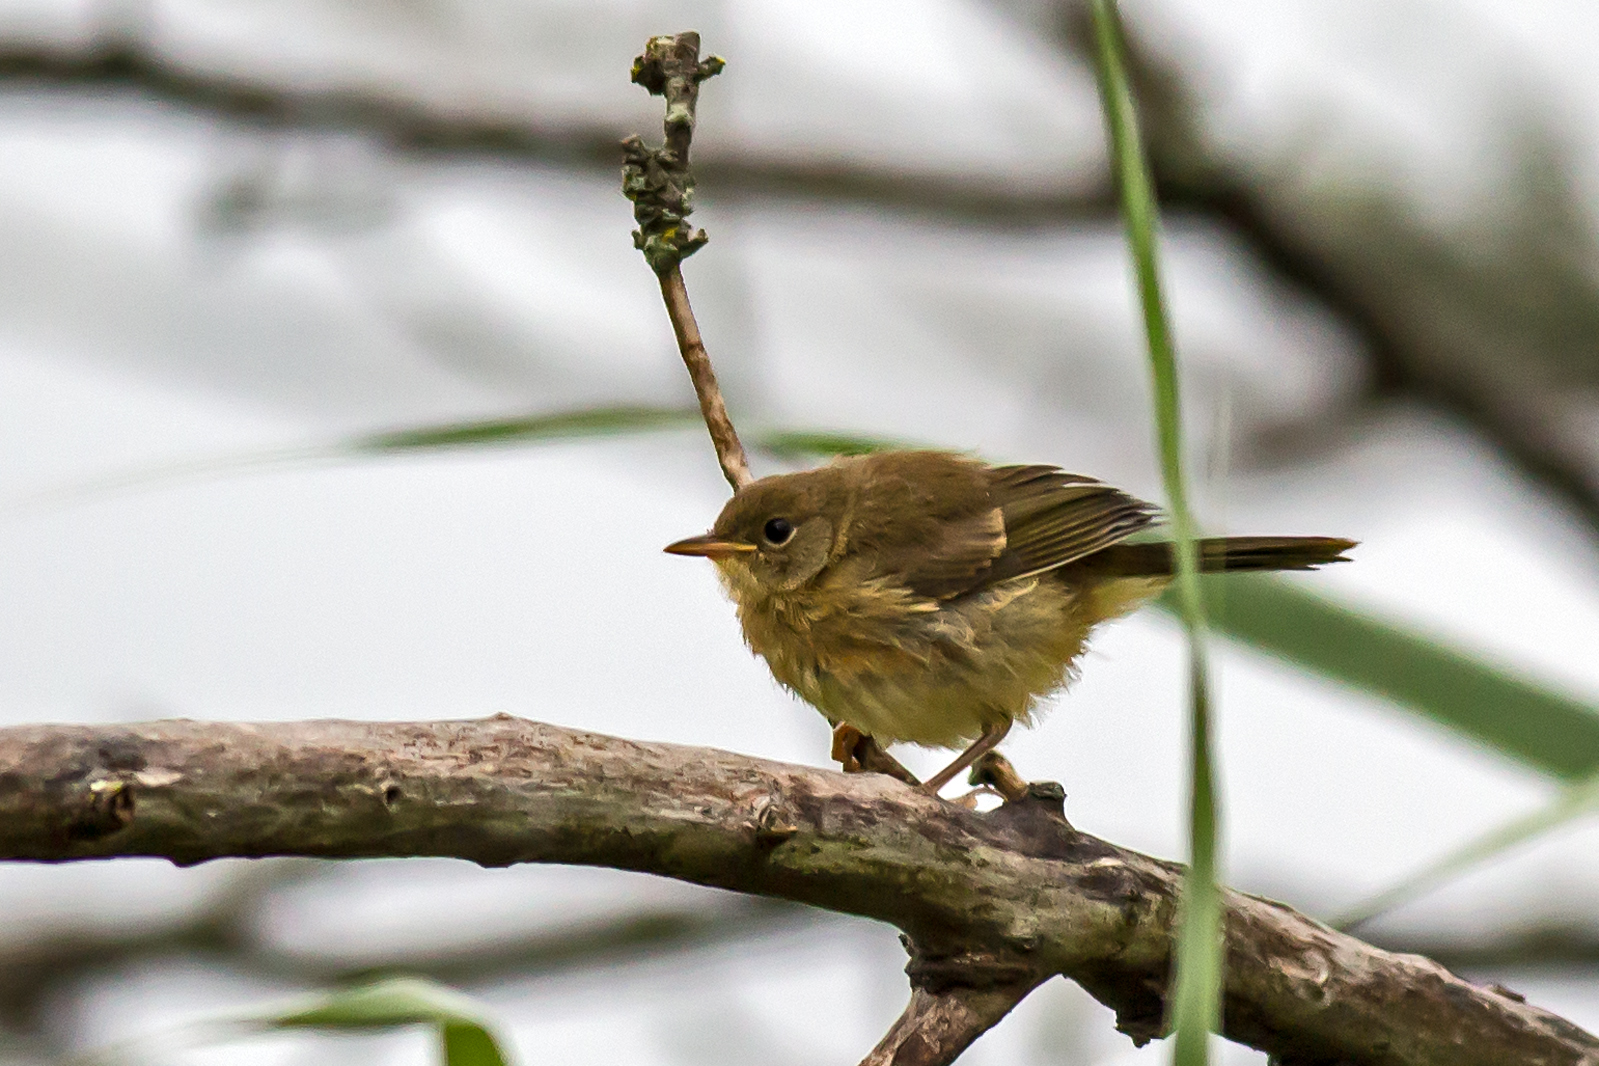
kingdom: Animalia
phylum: Chordata
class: Aves
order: Passeriformes
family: Parulidae
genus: Geothlypis
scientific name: Geothlypis trichas
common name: Common yellowthroat
